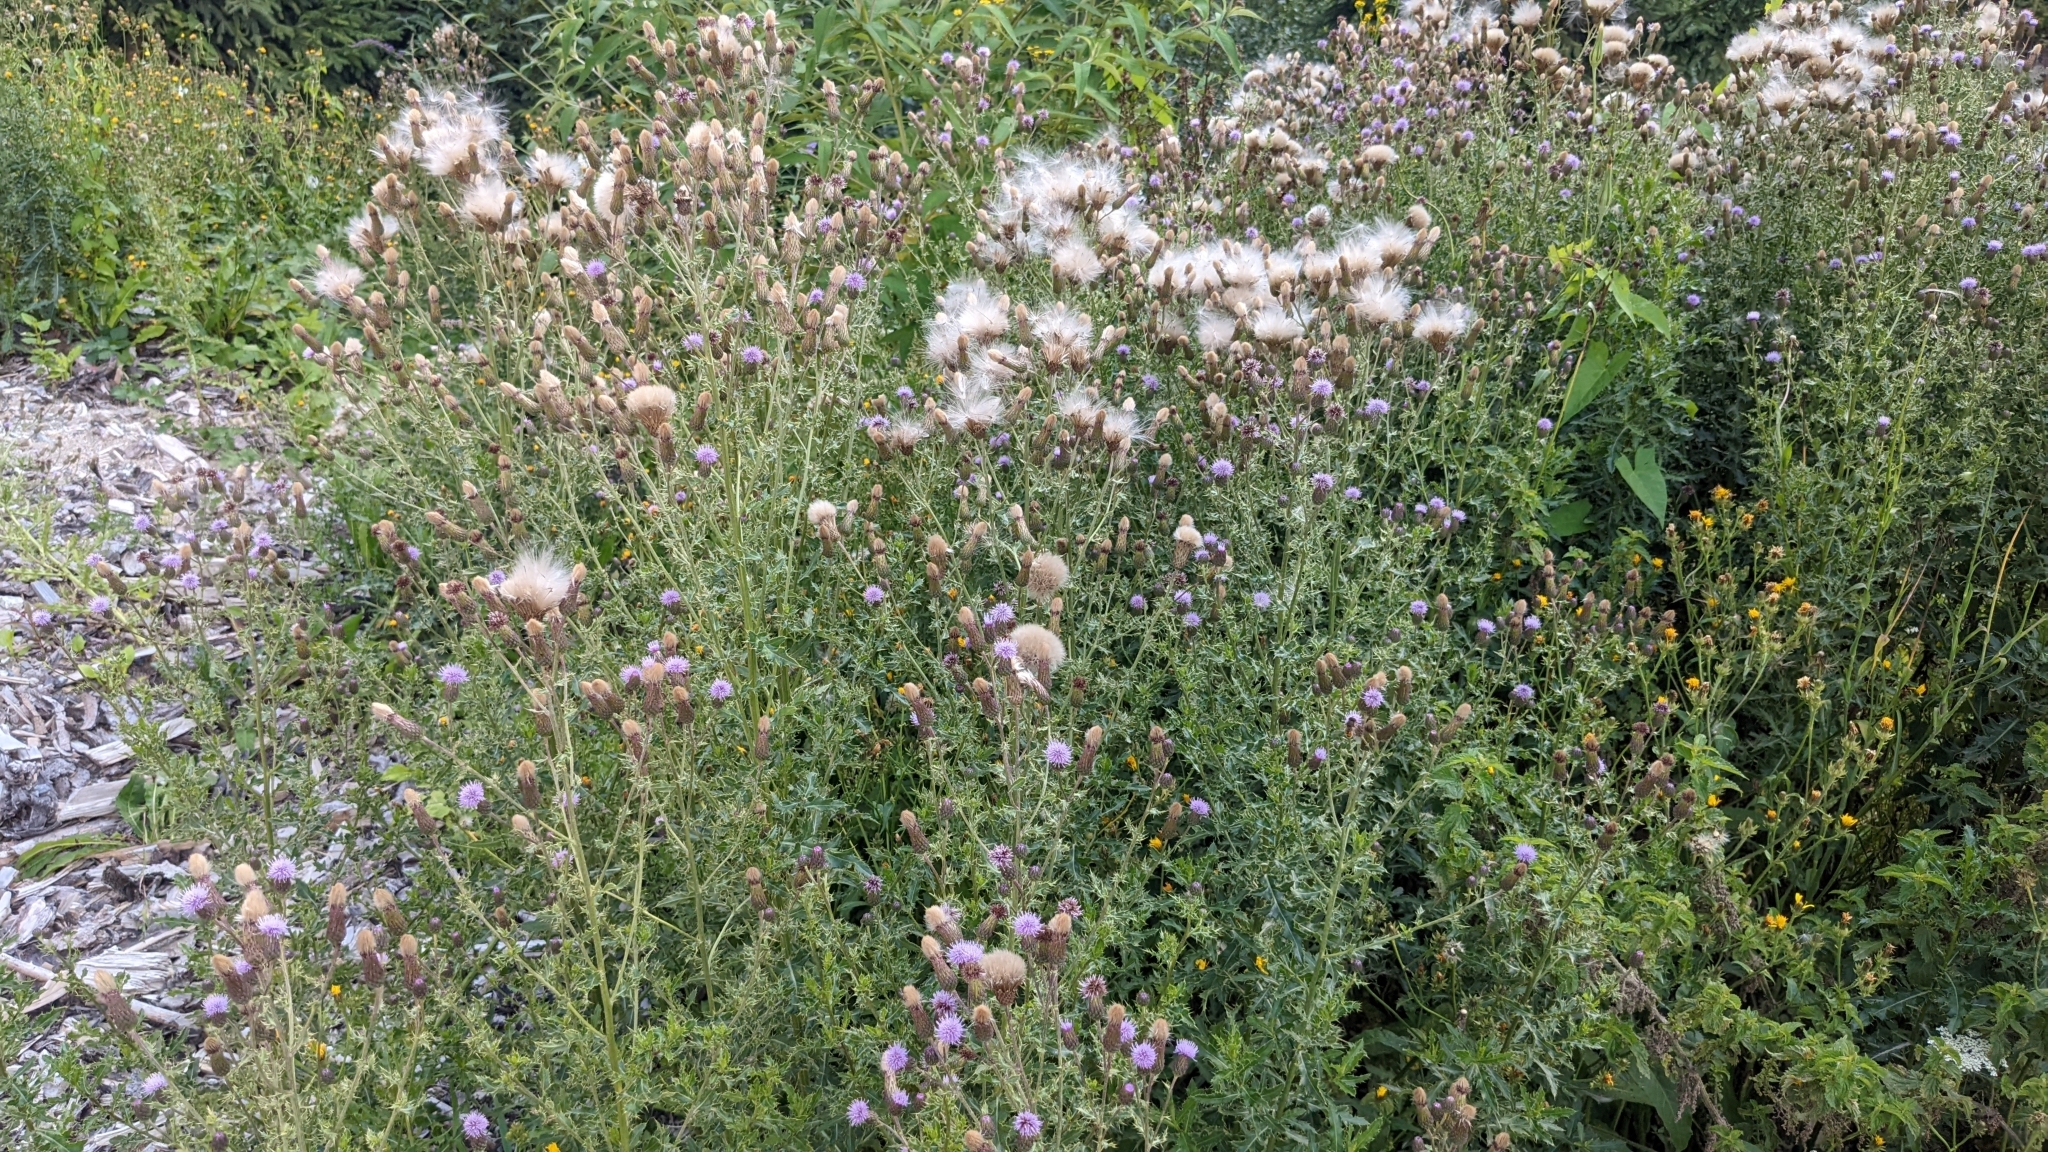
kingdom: Plantae
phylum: Tracheophyta
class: Magnoliopsida
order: Asterales
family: Asteraceae
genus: Cirsium
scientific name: Cirsium arvense
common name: Creeping thistle
